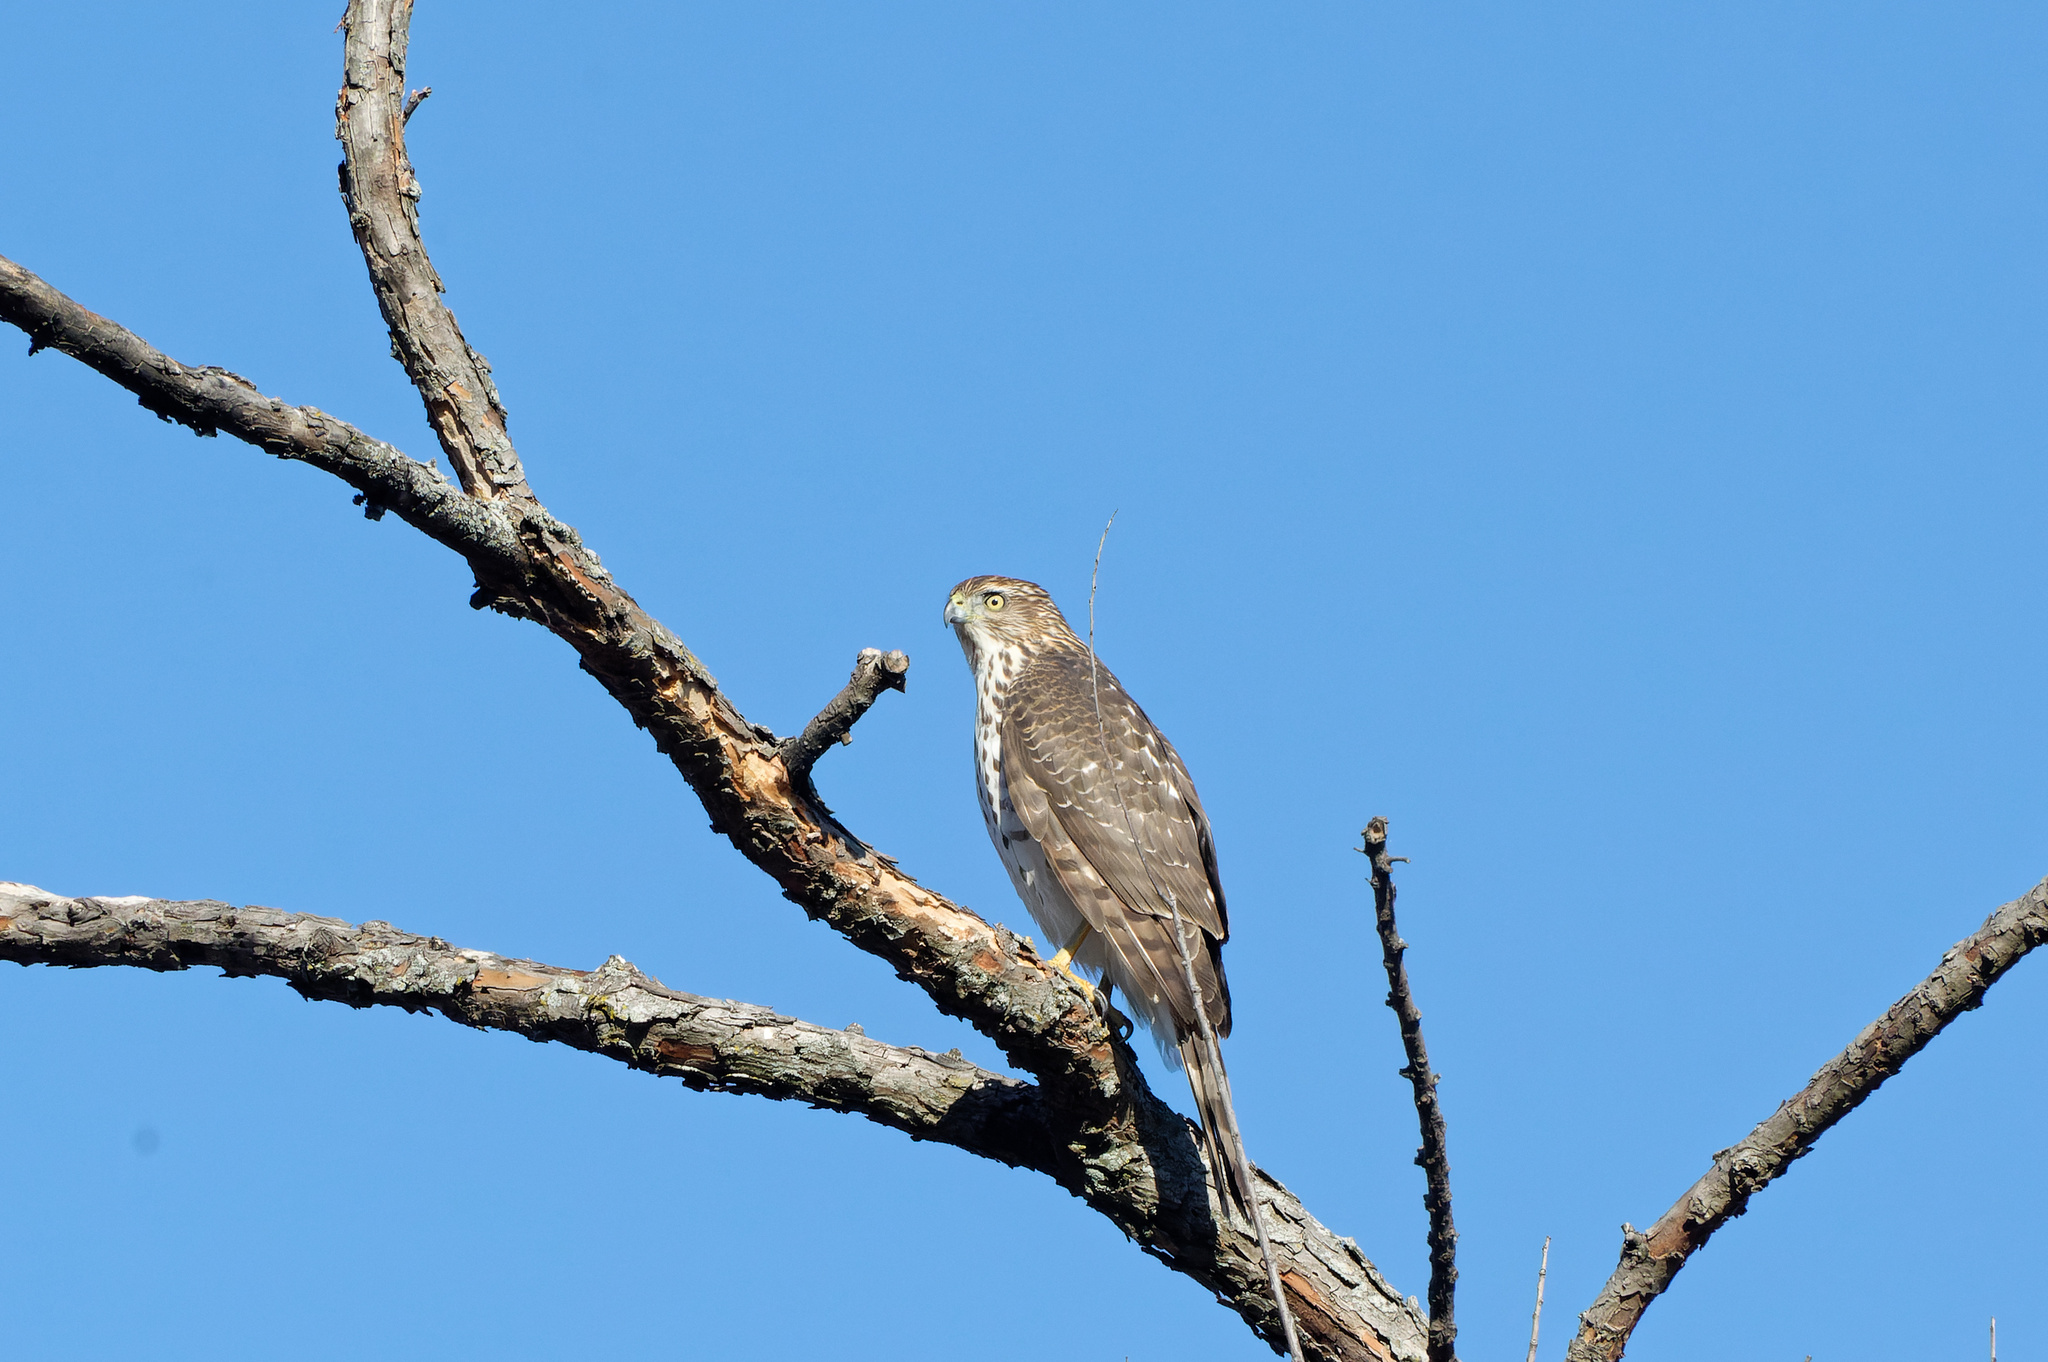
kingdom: Animalia
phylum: Chordata
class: Aves
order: Accipitriformes
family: Accipitridae
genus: Accipiter
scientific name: Accipiter cooperii
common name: Cooper's hawk
